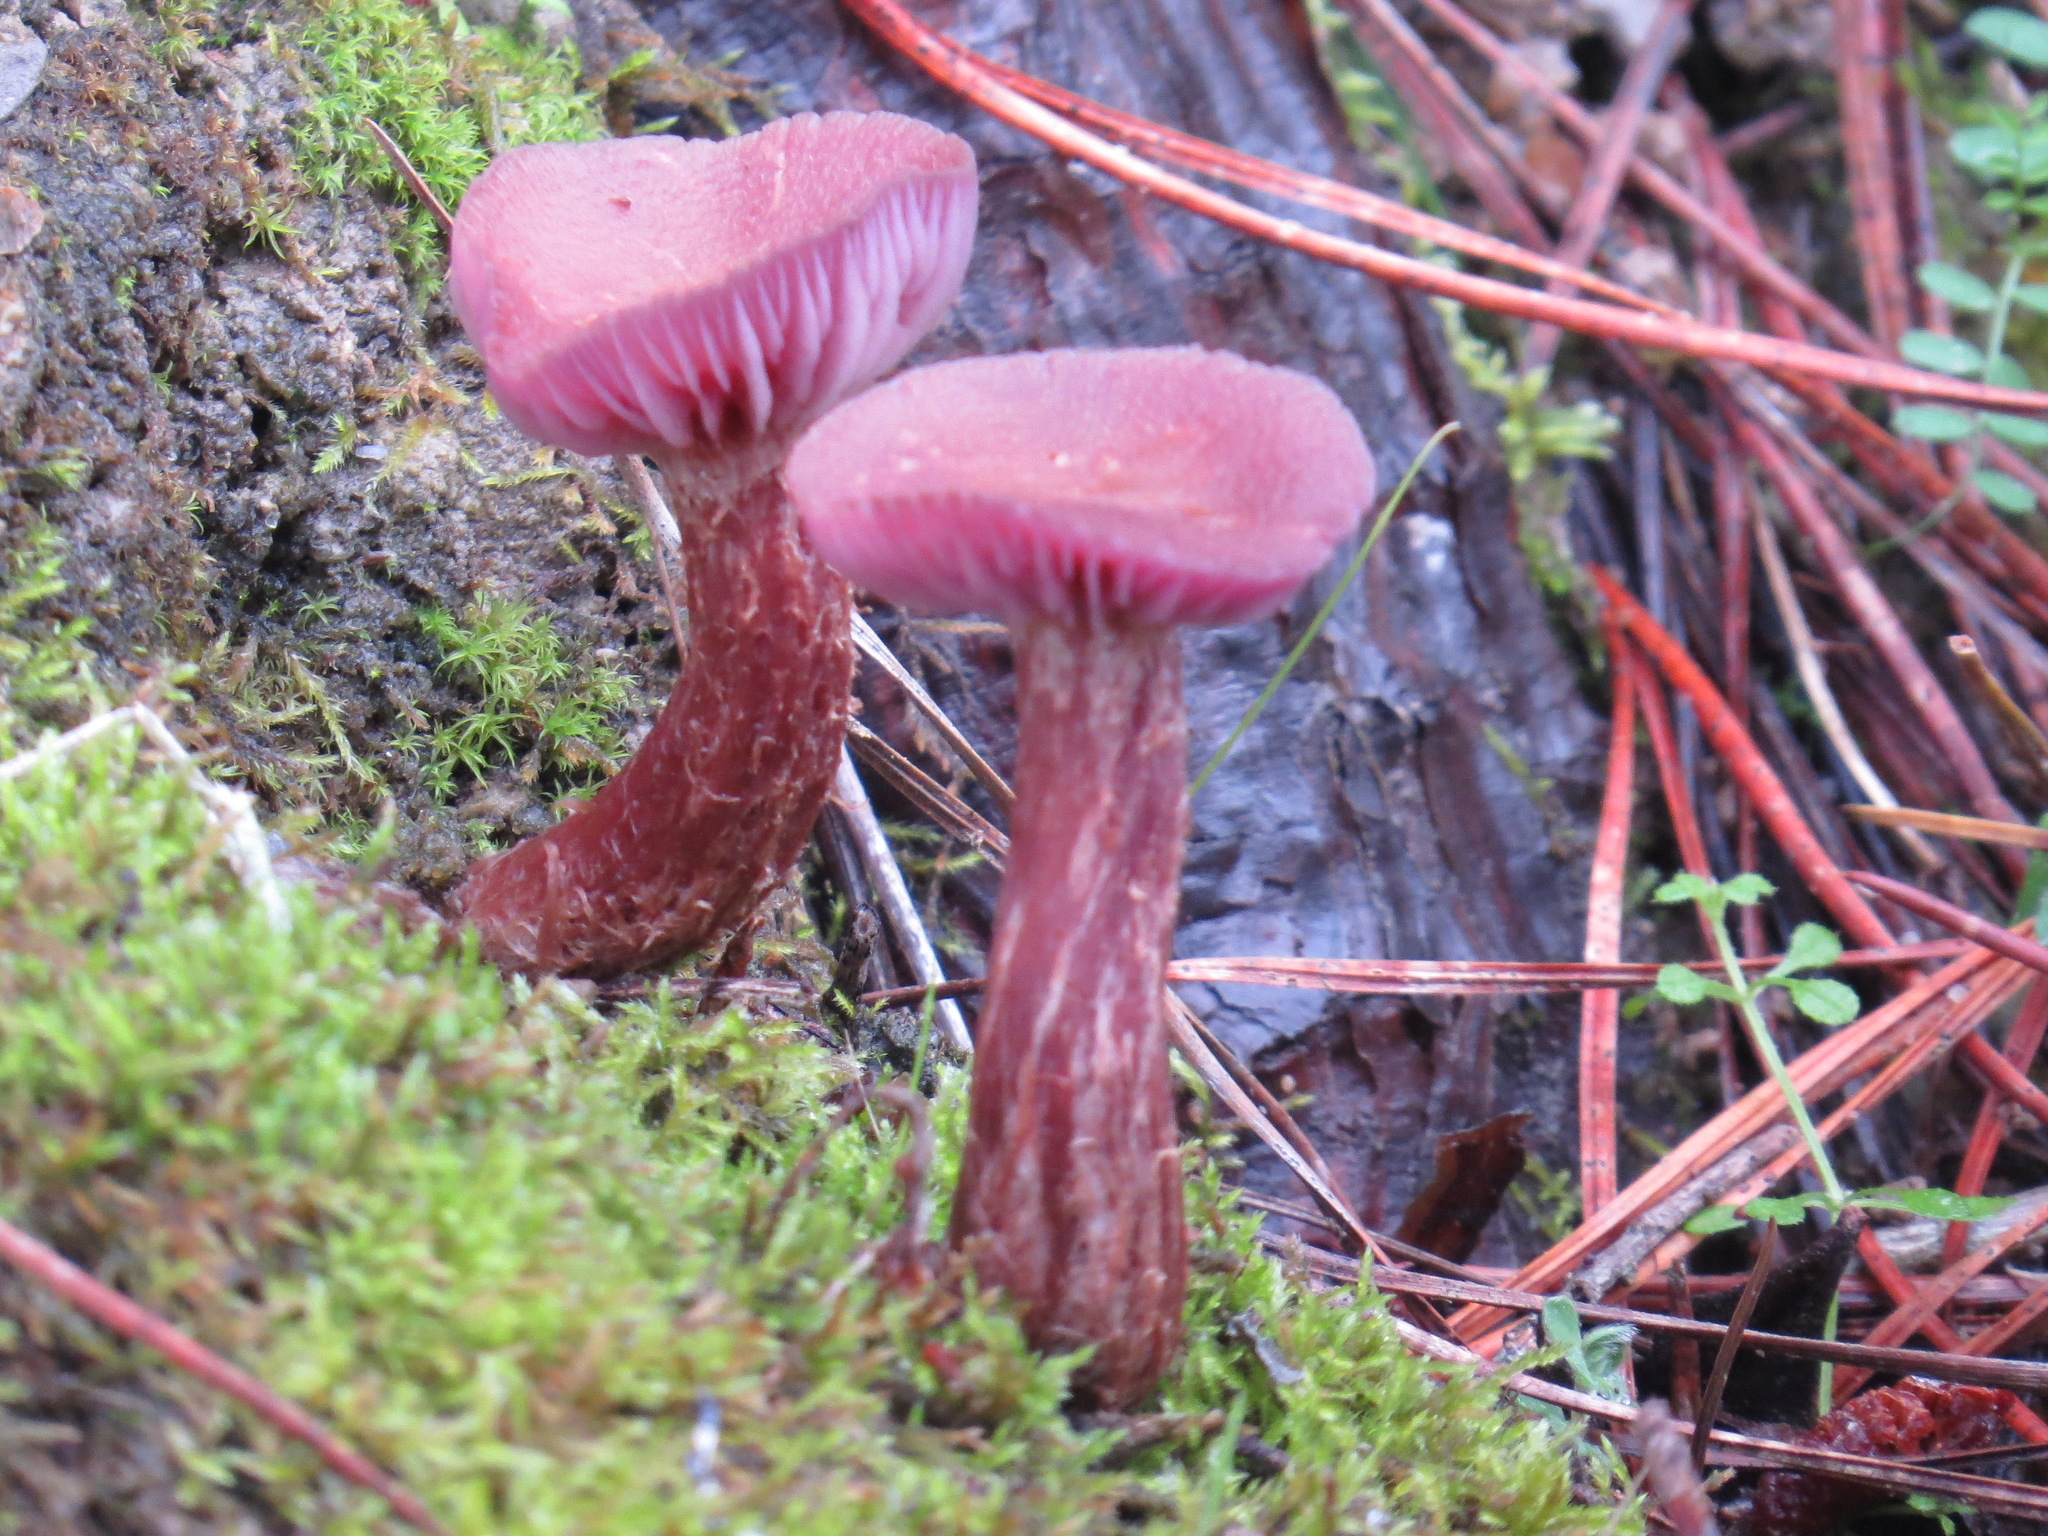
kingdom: Fungi
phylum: Basidiomycota
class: Agaricomycetes
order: Agaricales
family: Hydnangiaceae
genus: Laccaria
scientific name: Laccaria amethysteo-occidentalis
